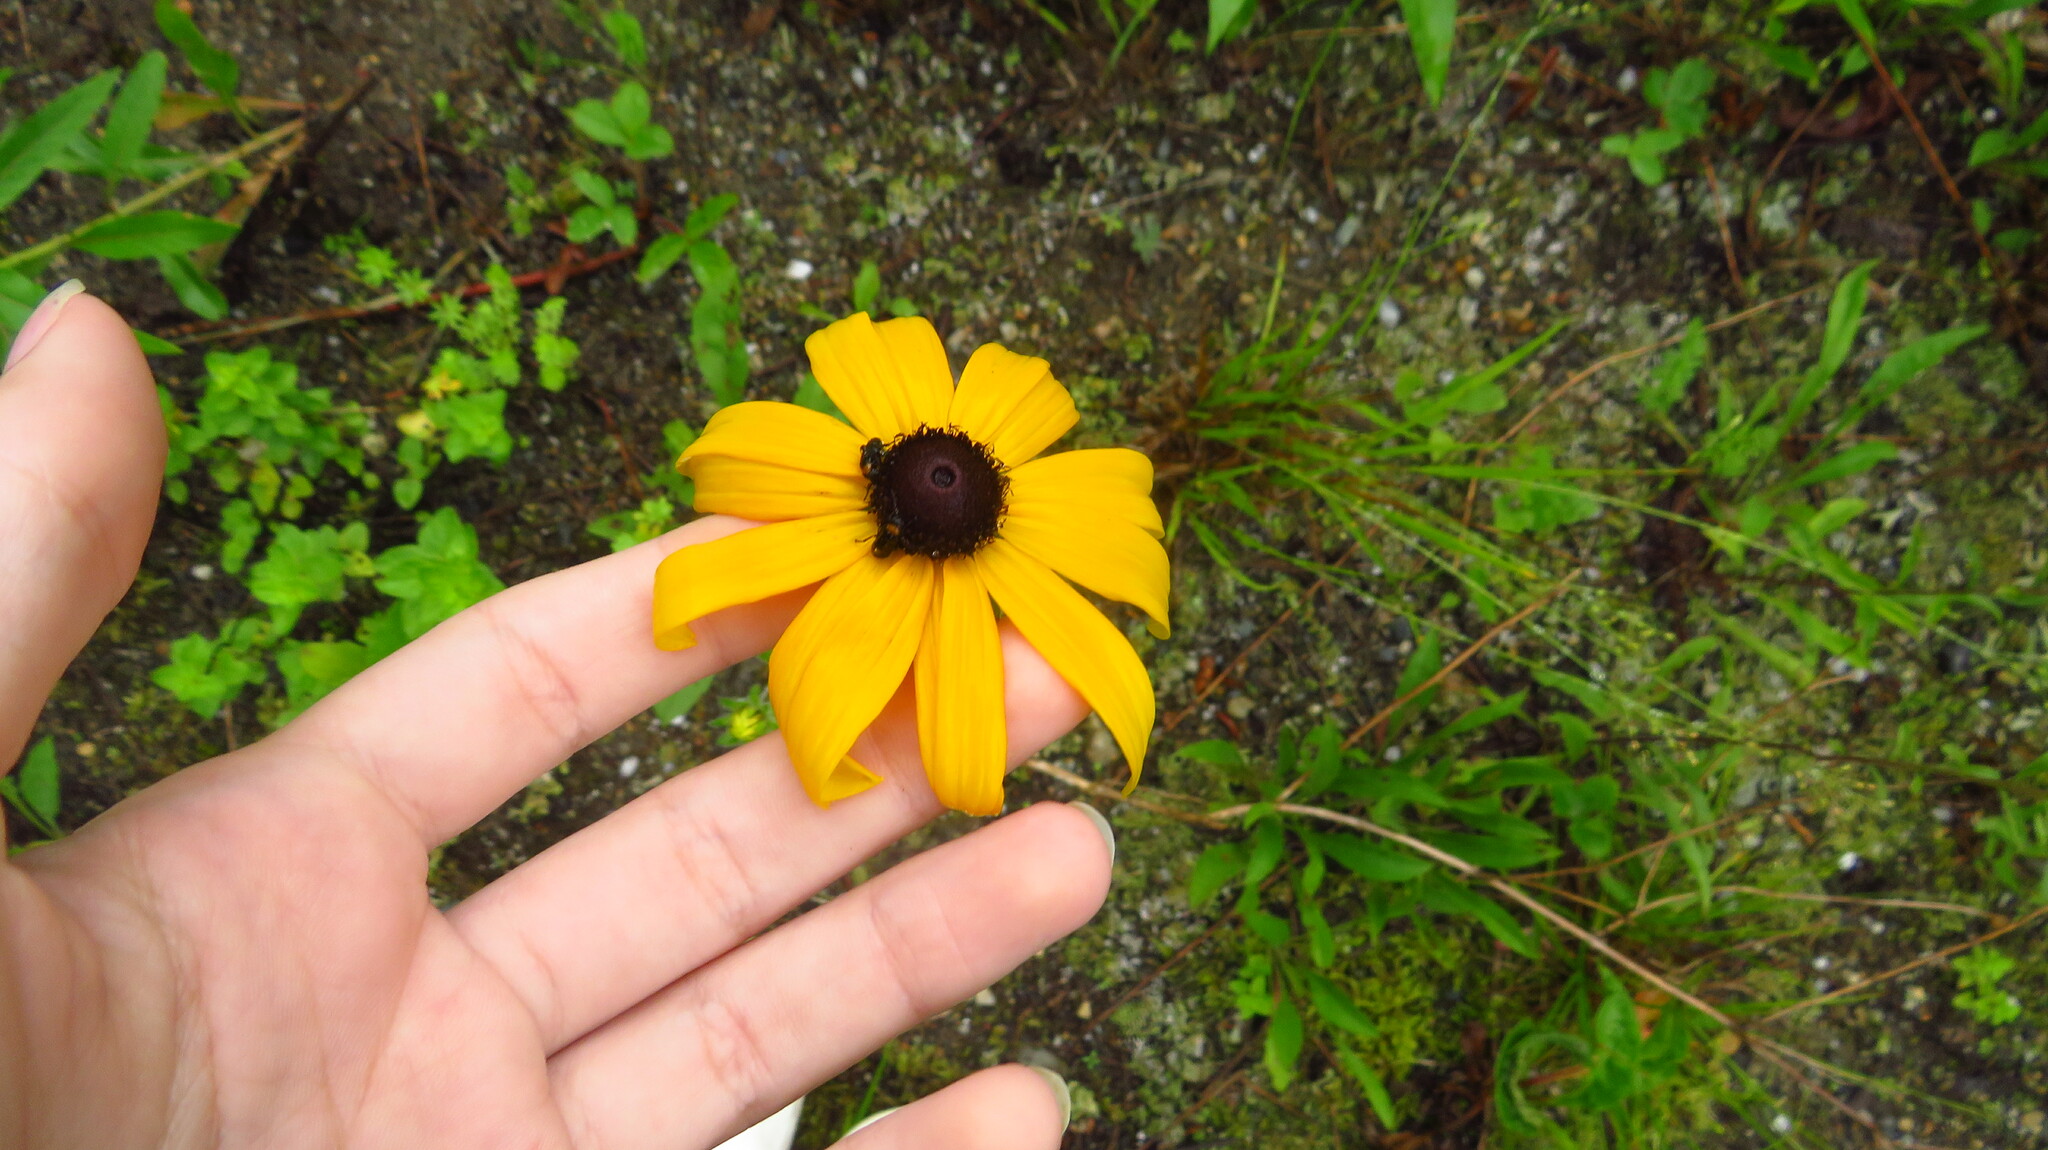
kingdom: Plantae
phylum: Tracheophyta
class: Magnoliopsida
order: Asterales
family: Asteraceae
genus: Rudbeckia
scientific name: Rudbeckia hirta
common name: Black-eyed-susan
